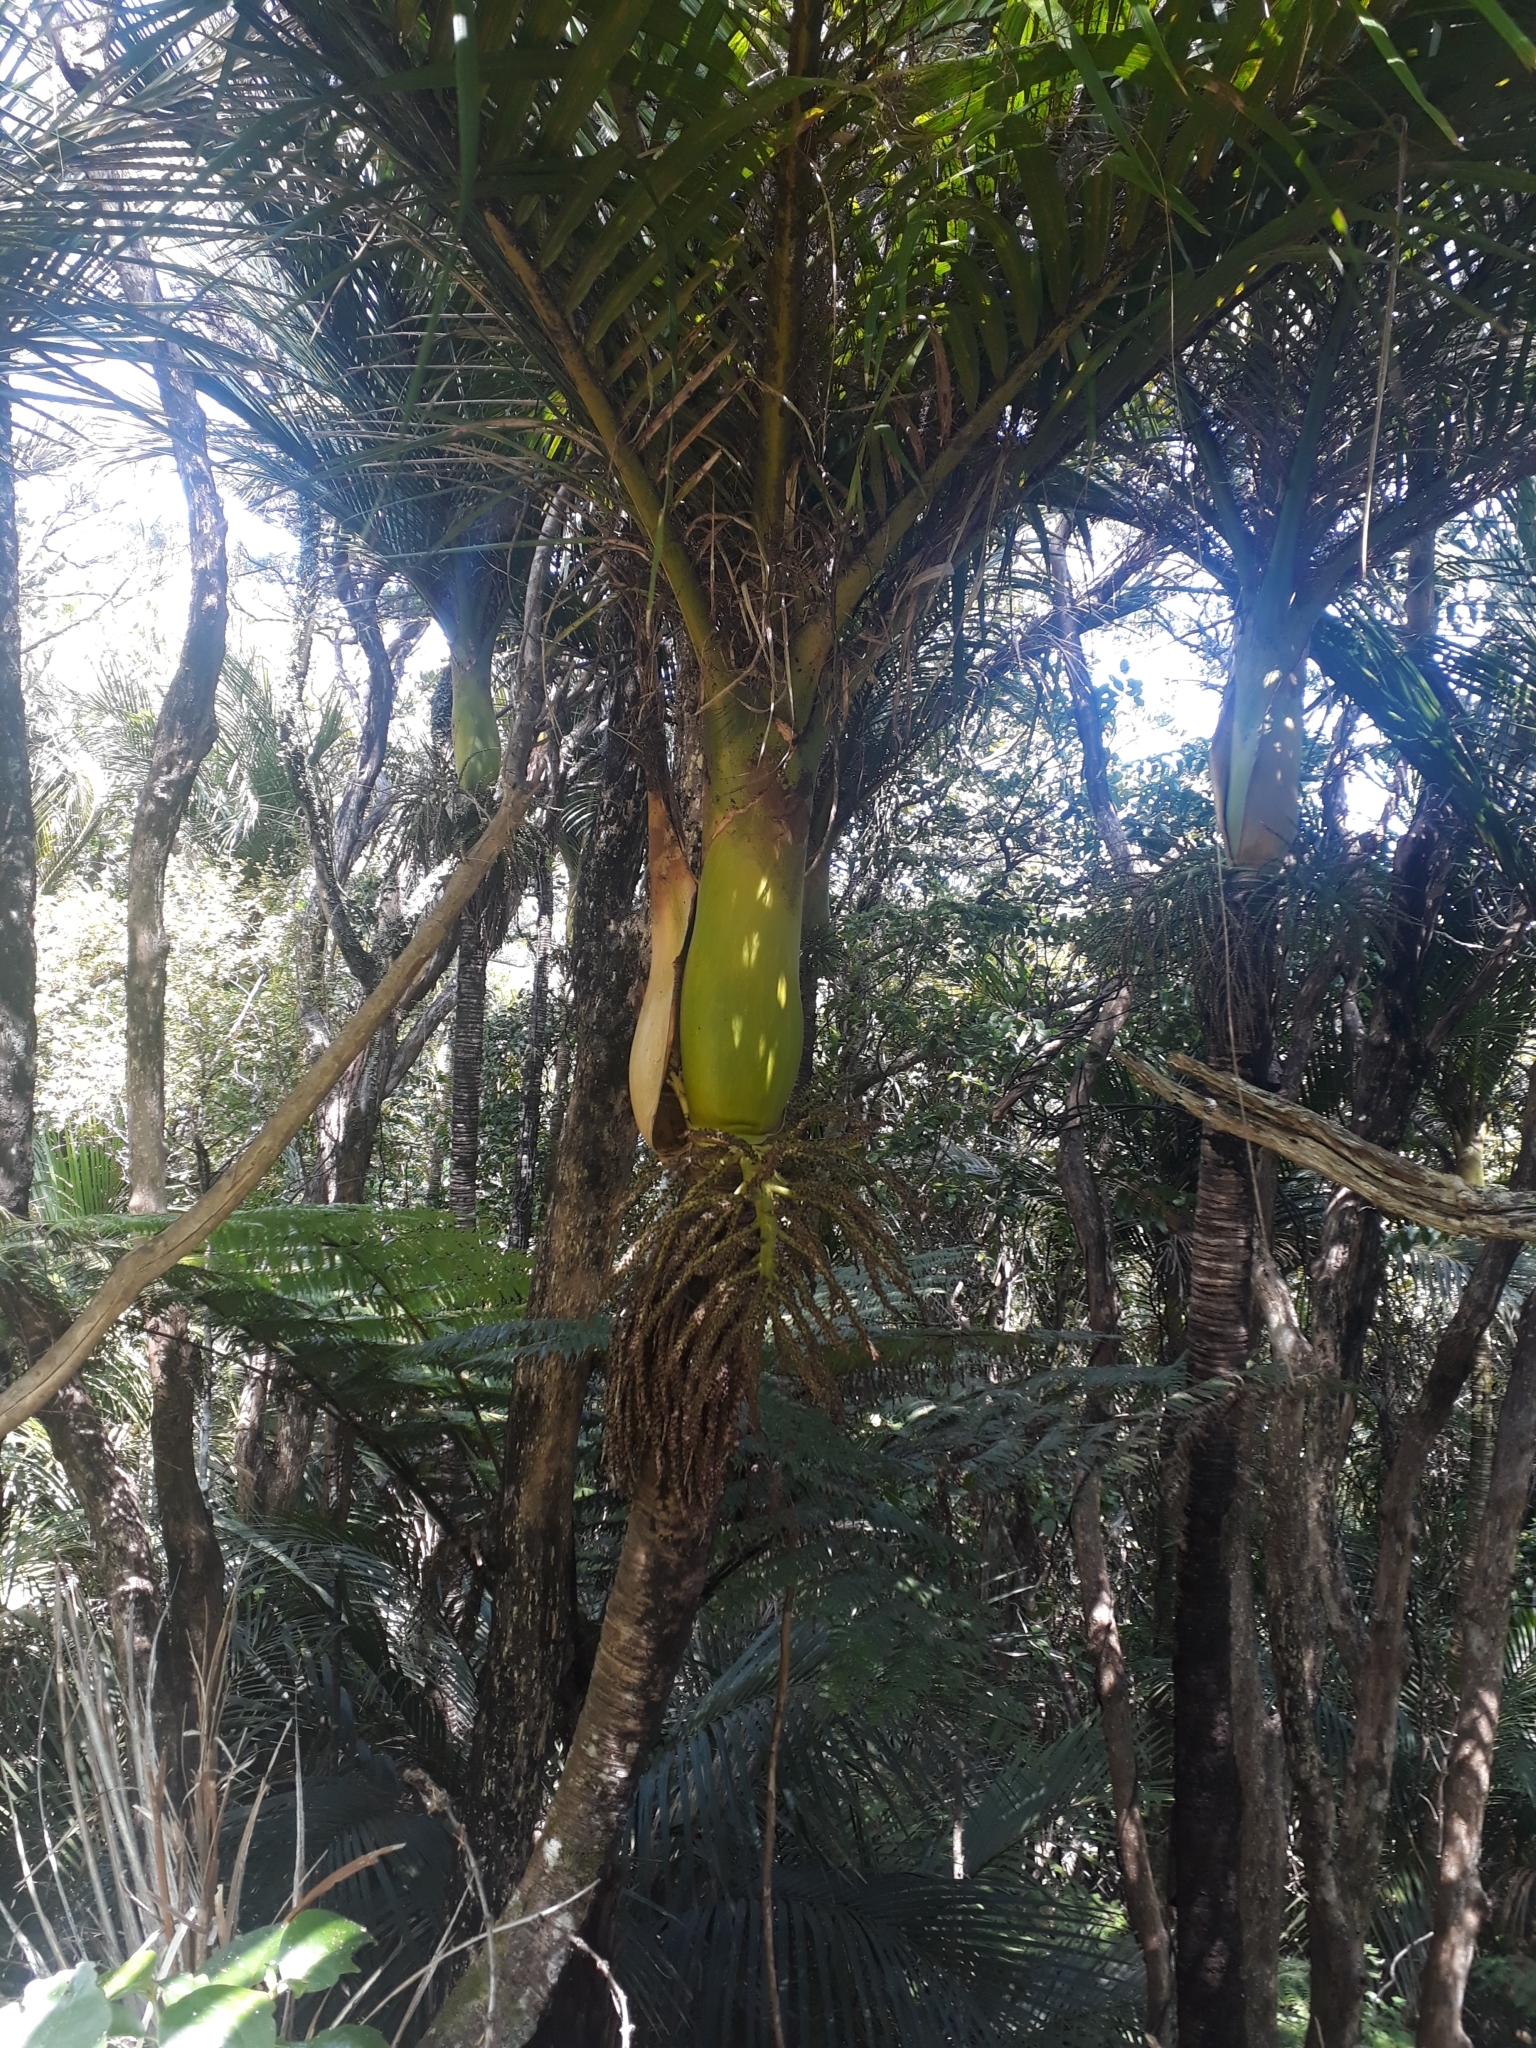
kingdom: Plantae
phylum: Tracheophyta
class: Liliopsida
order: Arecales
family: Arecaceae
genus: Rhopalostylis
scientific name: Rhopalostylis sapida
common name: Feather-duster palm
